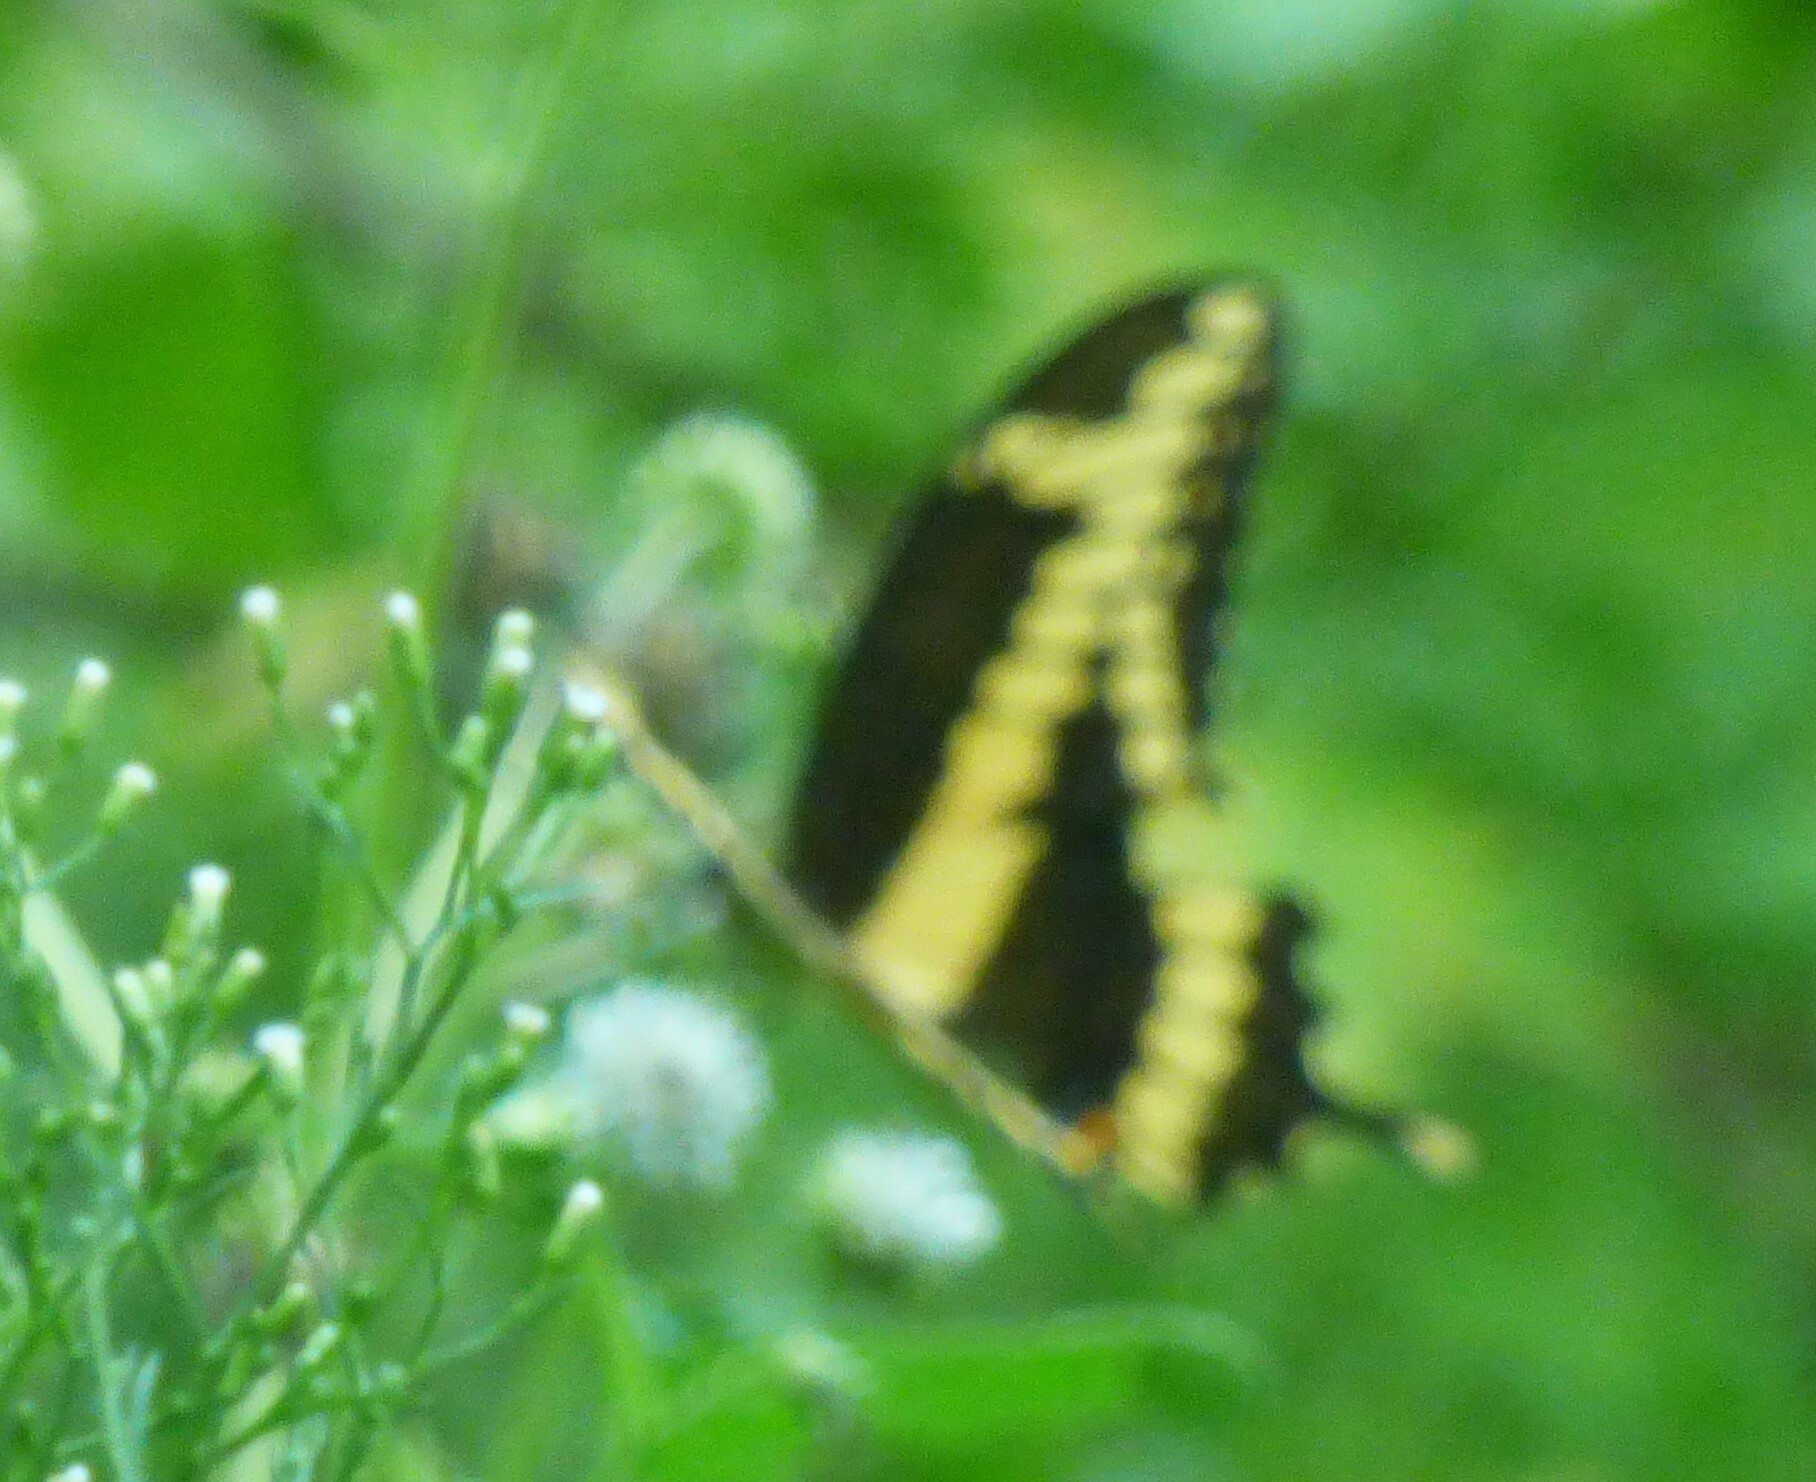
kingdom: Animalia
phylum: Arthropoda
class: Insecta
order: Lepidoptera
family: Papilionidae
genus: Papilio
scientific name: Papilio cresphontes
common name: Giant swallowtail
